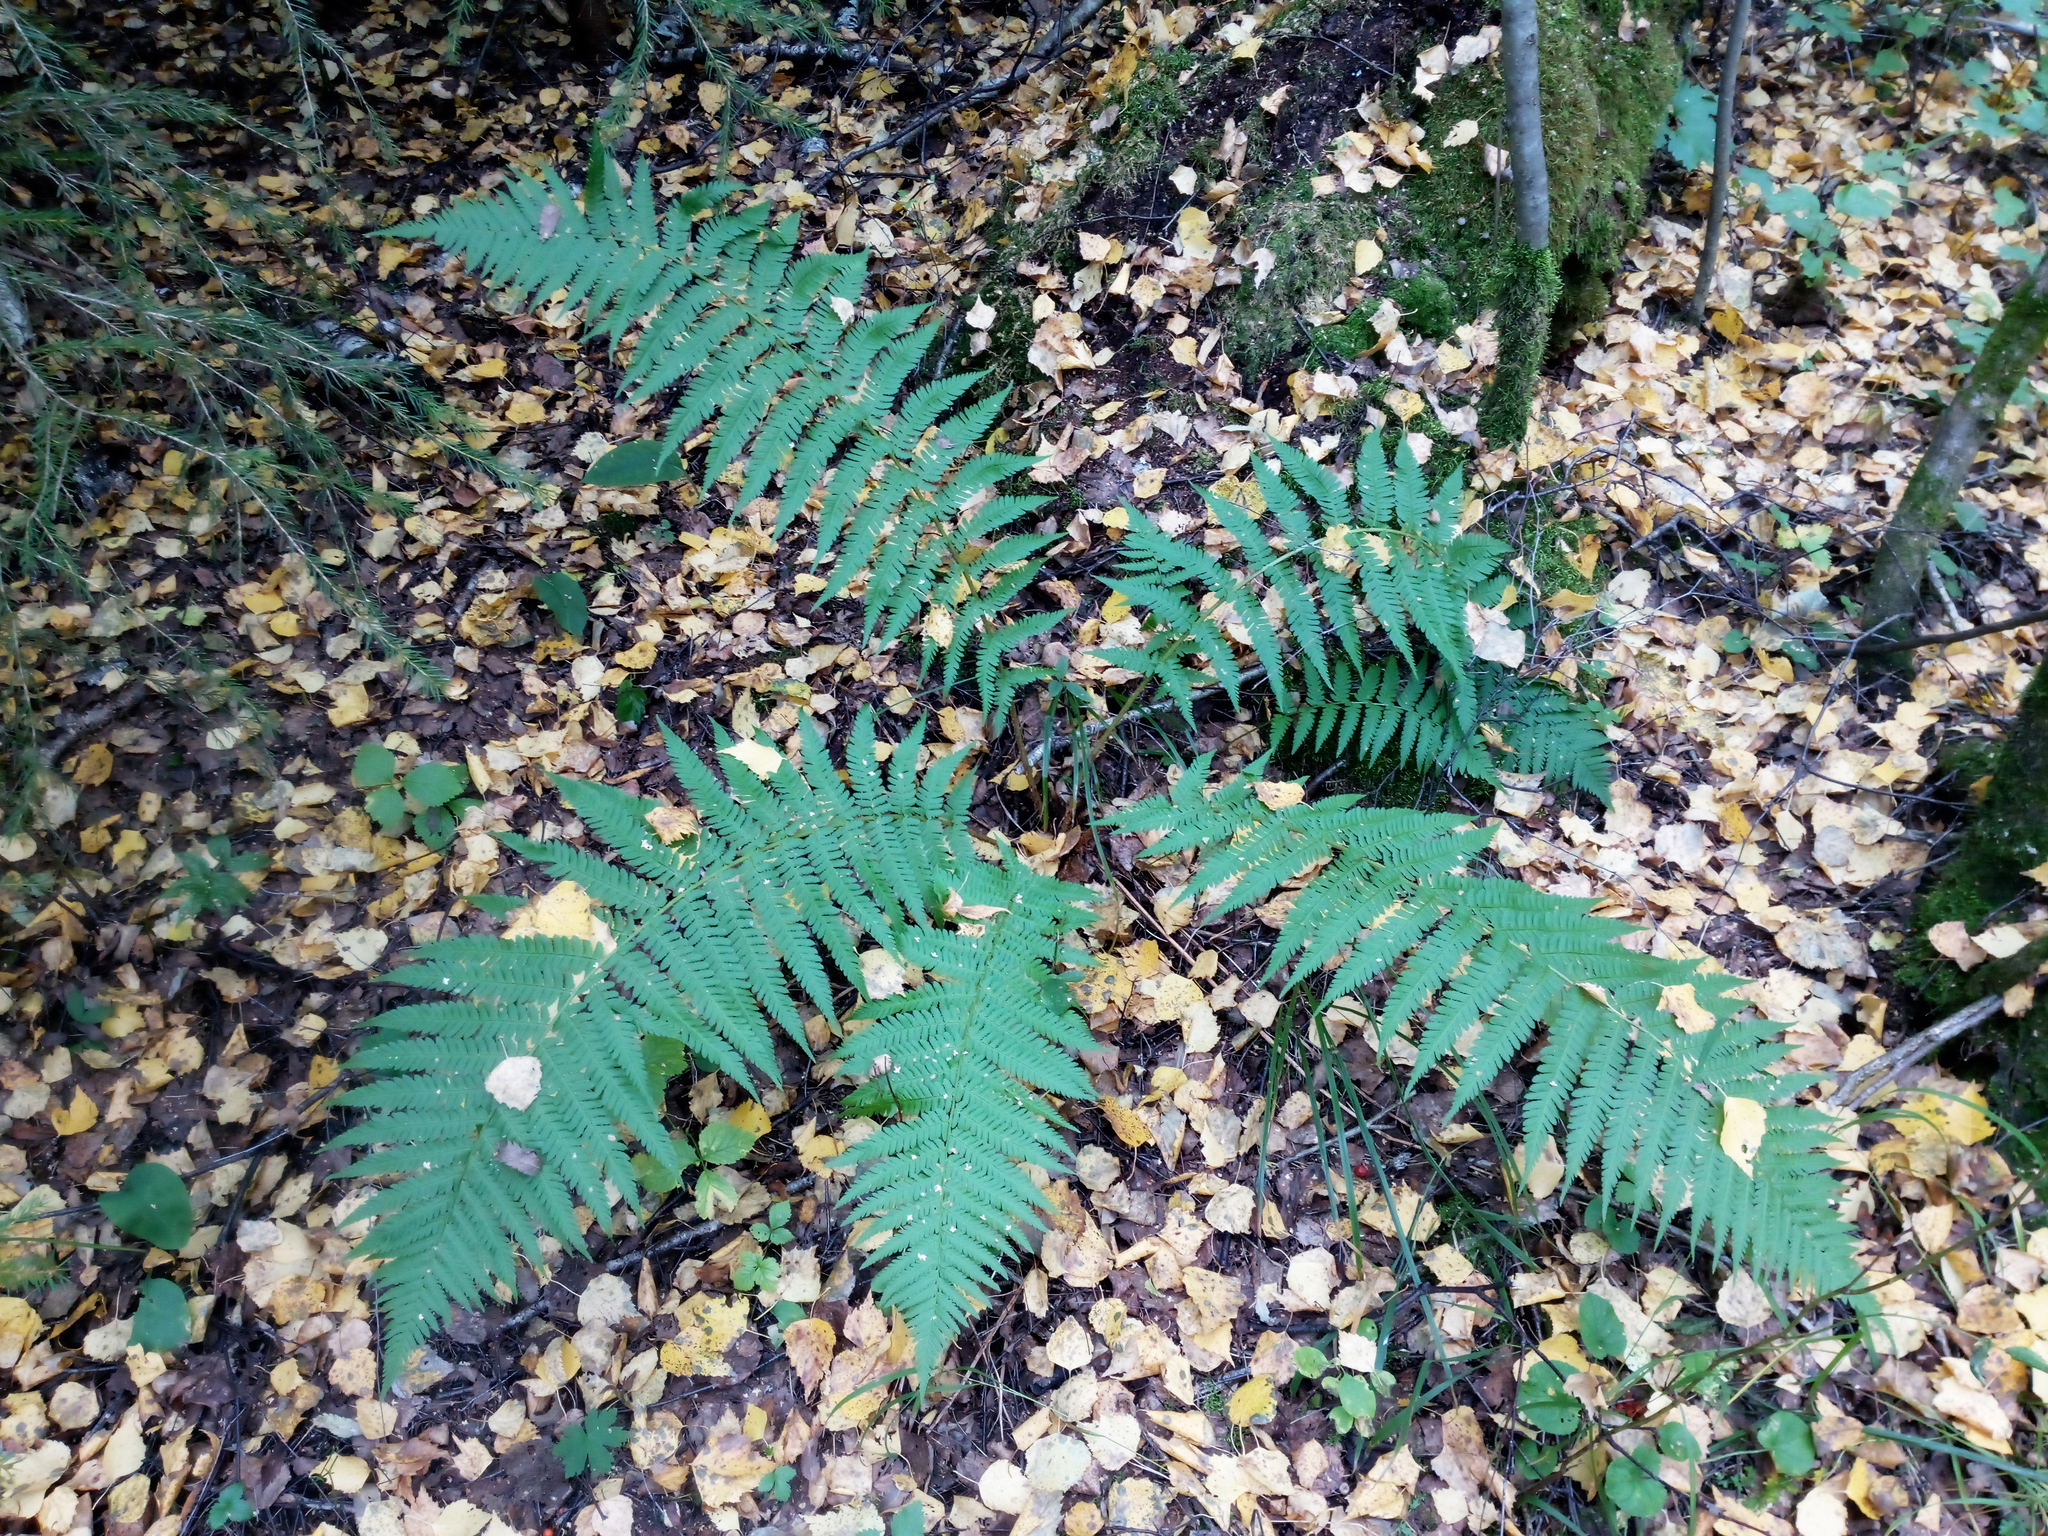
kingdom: Plantae
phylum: Tracheophyta
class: Polypodiopsida
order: Polypodiales
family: Dryopteridaceae
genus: Dryopteris
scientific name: Dryopteris filix-mas
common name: Male fern
